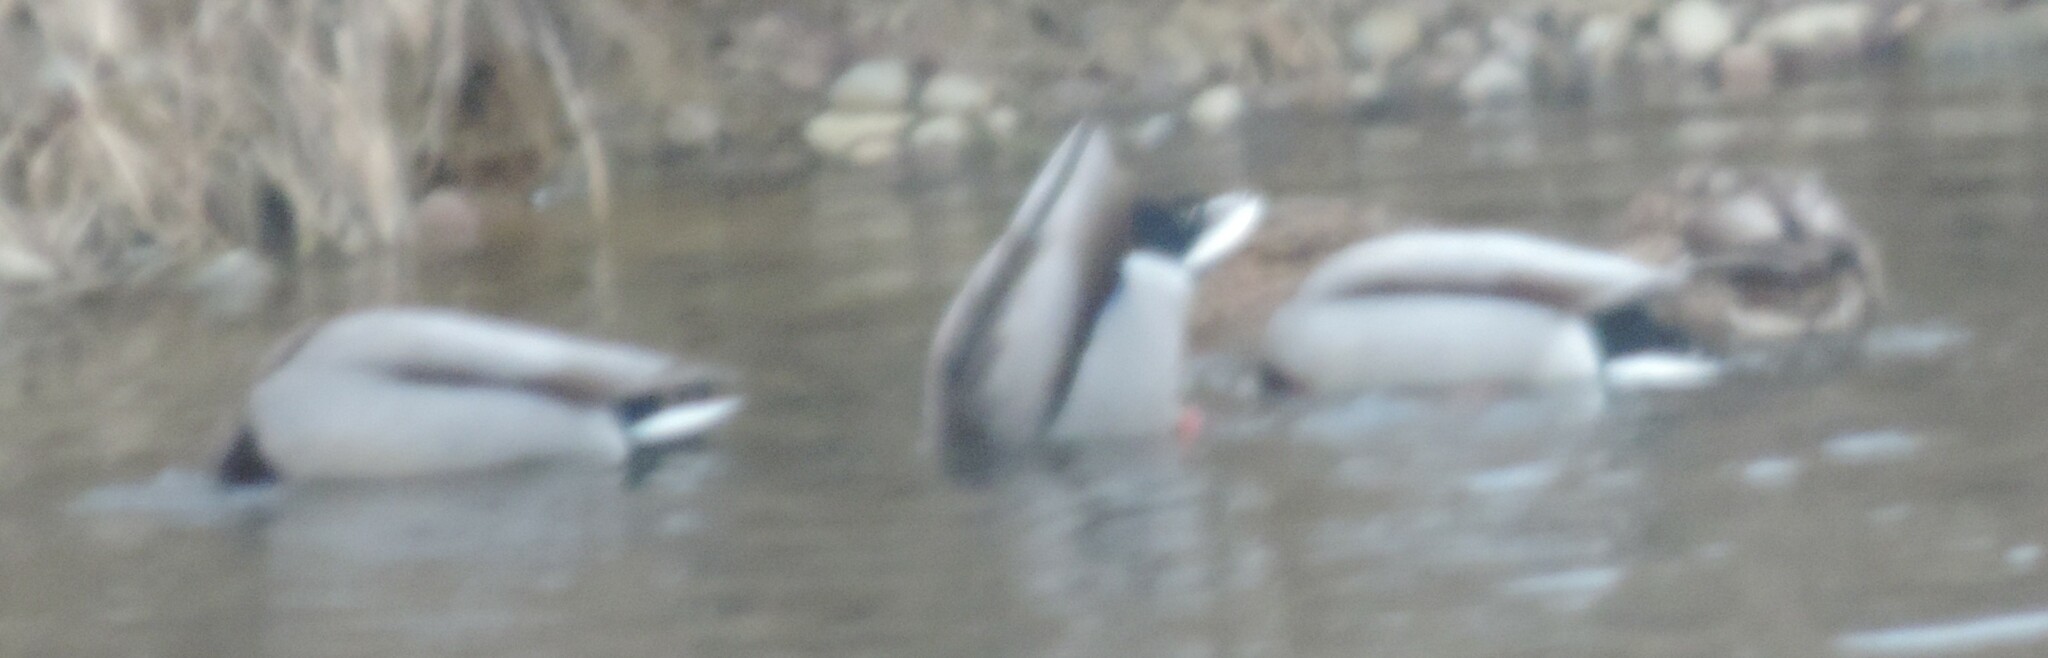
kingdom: Animalia
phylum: Chordata
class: Aves
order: Anseriformes
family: Anatidae
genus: Anas
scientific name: Anas platyrhynchos
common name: Mallard
